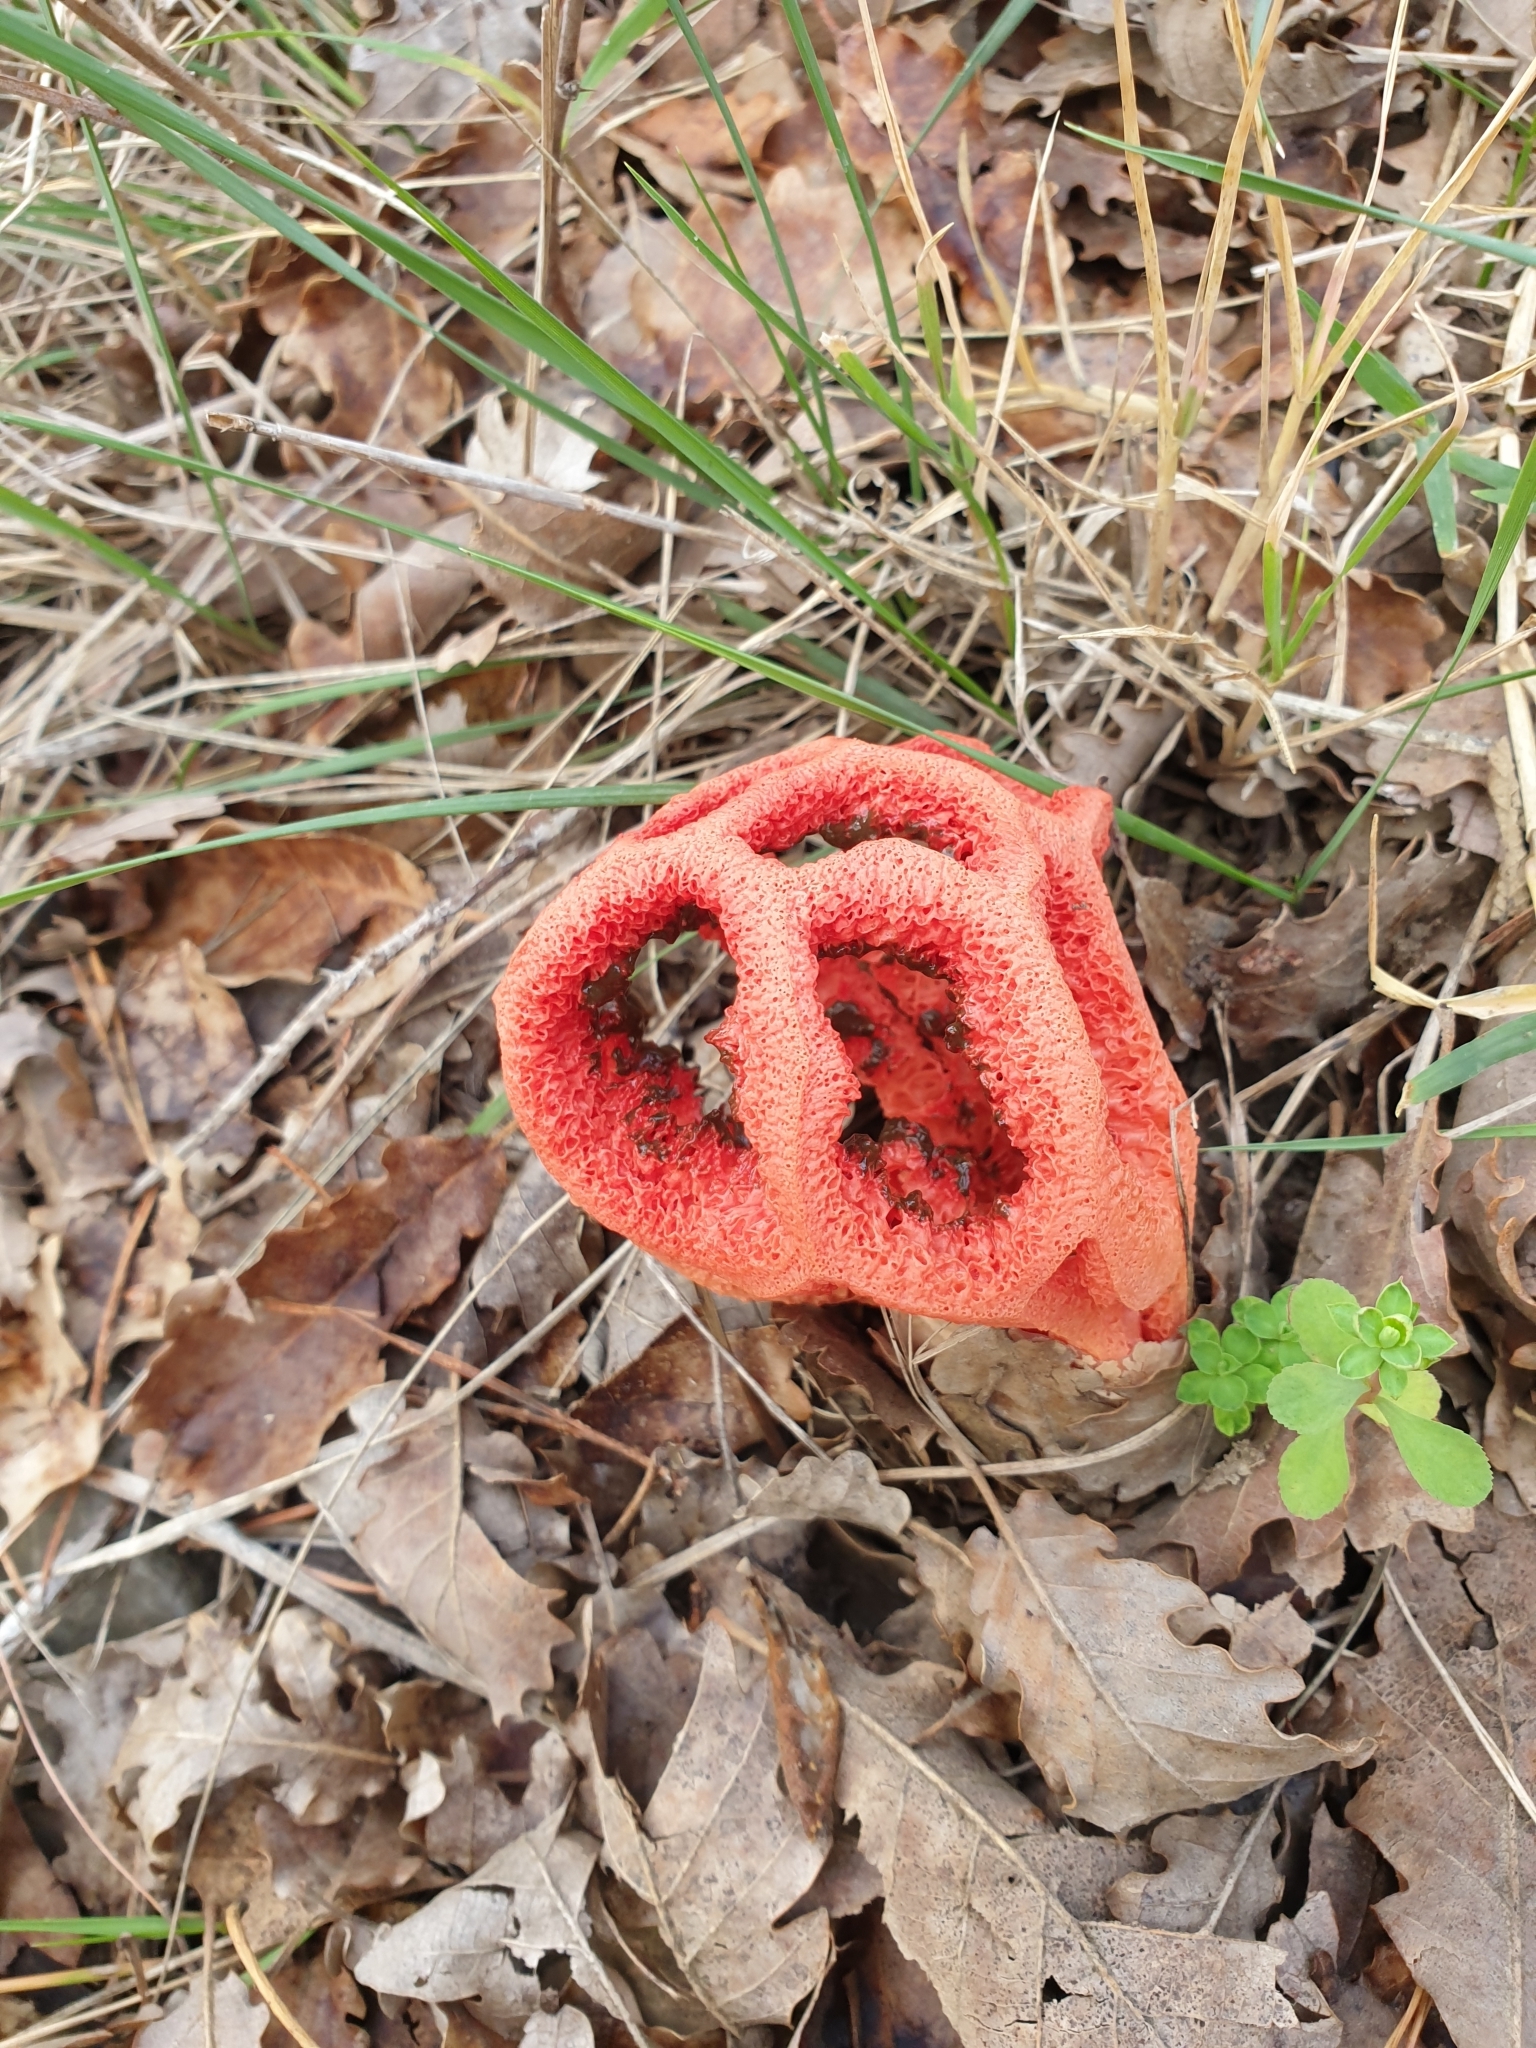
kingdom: Fungi
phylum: Basidiomycota
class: Agaricomycetes
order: Phallales
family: Phallaceae
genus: Clathrus
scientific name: Clathrus ruber
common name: Red cage
